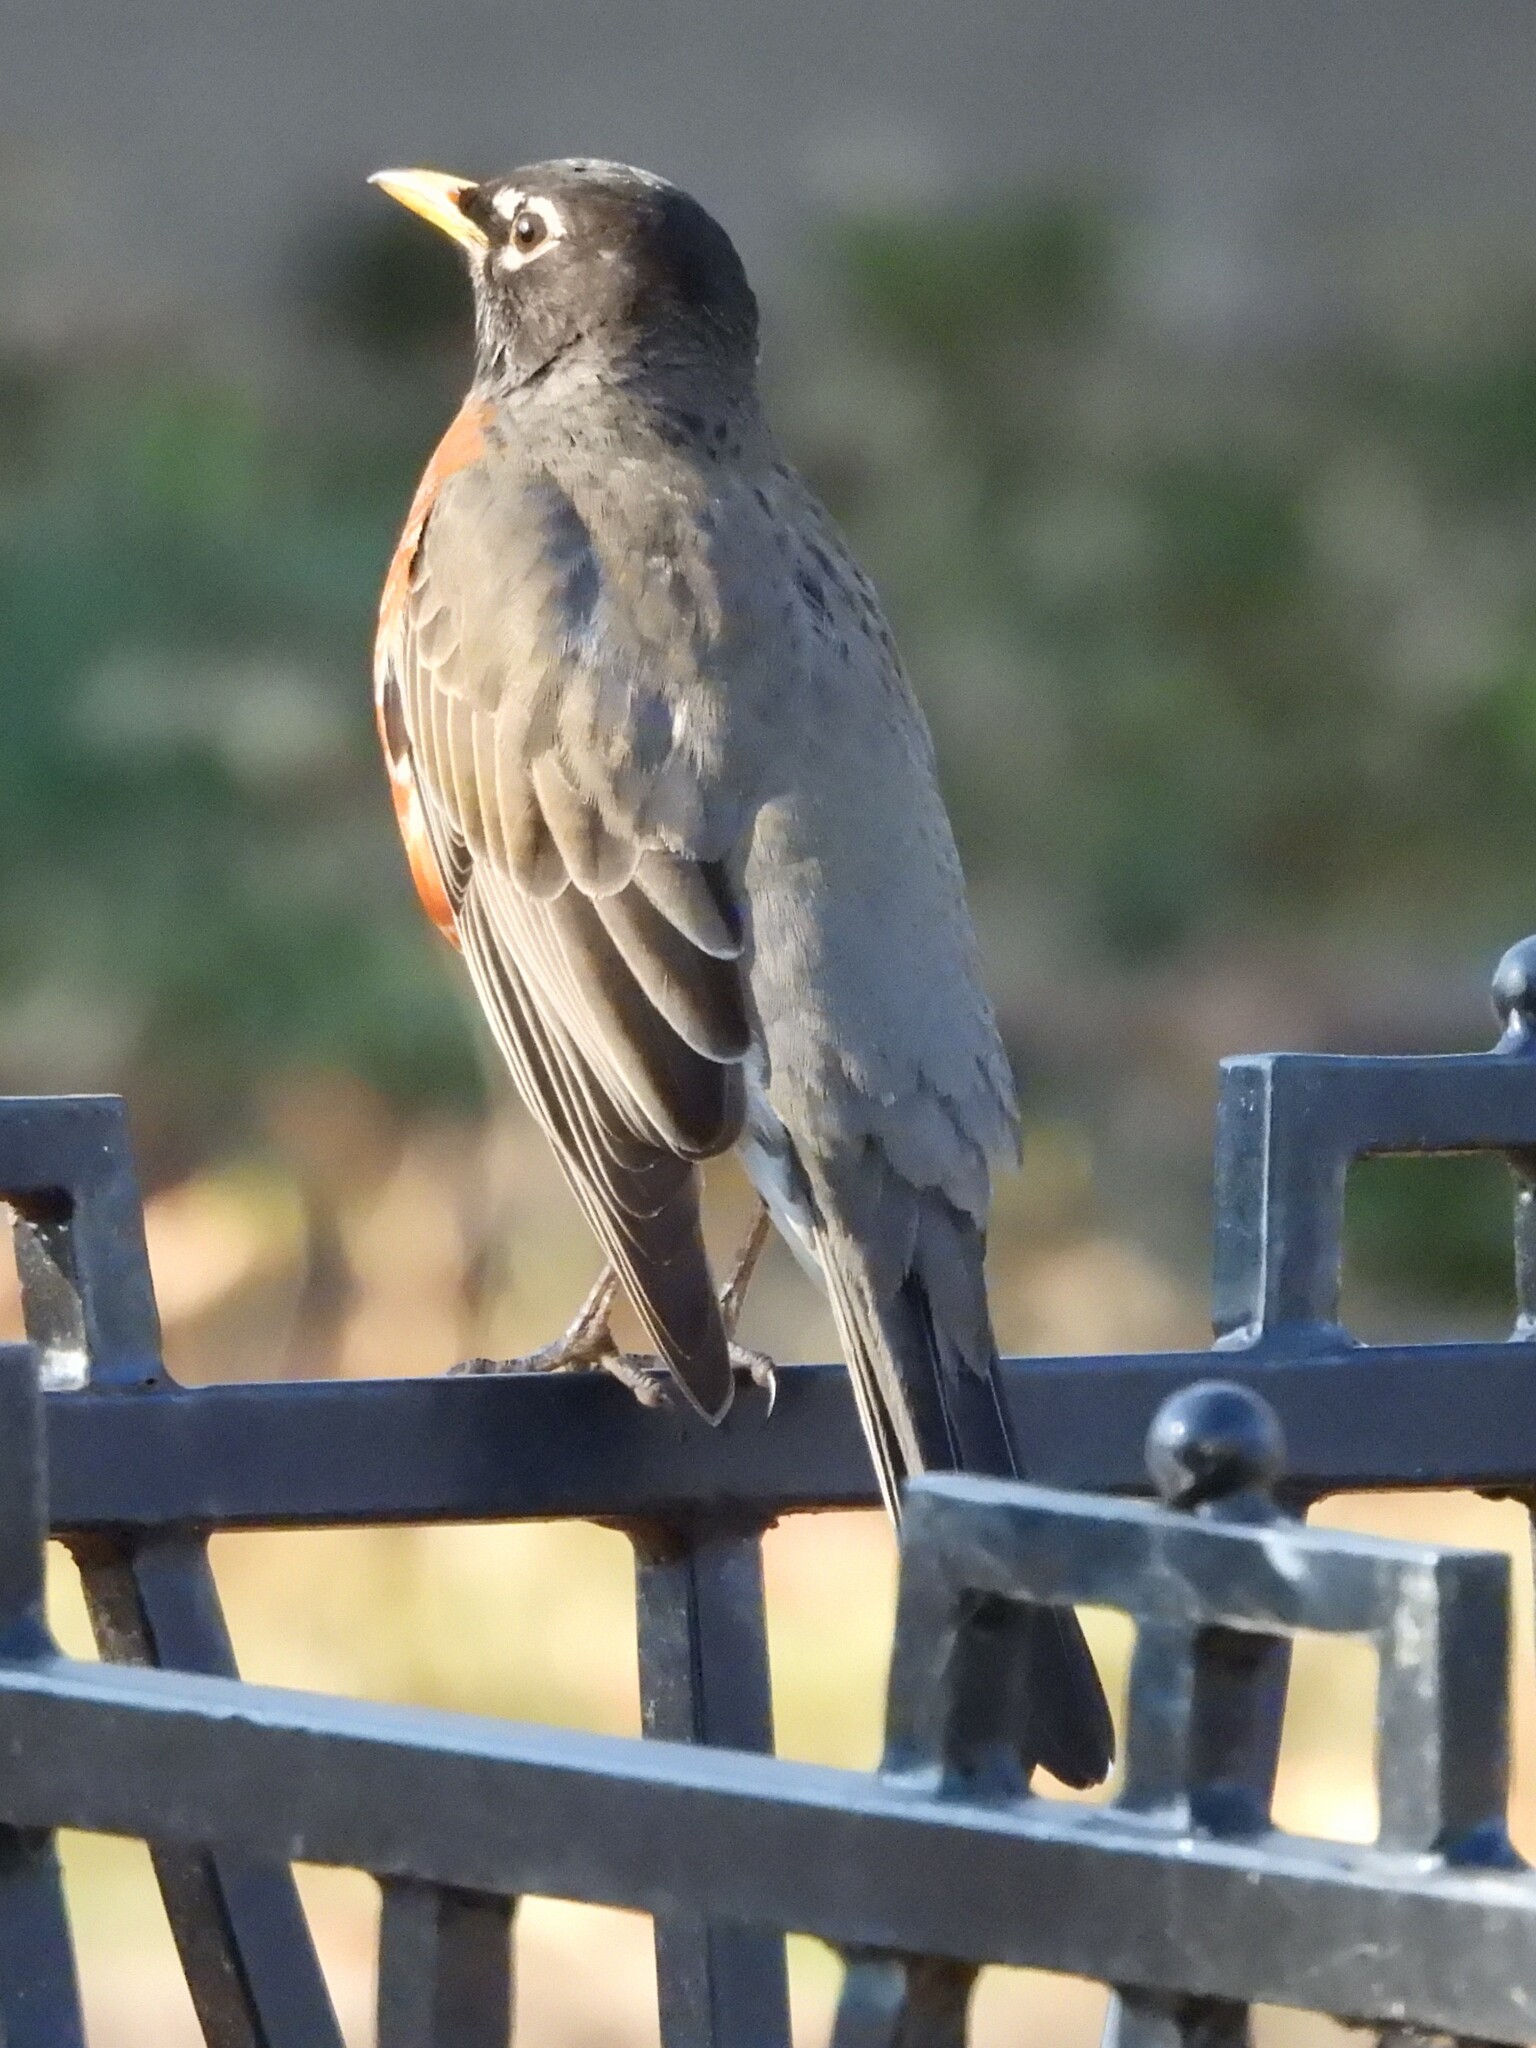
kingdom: Animalia
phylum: Chordata
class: Aves
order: Passeriformes
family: Turdidae
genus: Turdus
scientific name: Turdus migratorius
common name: American robin
